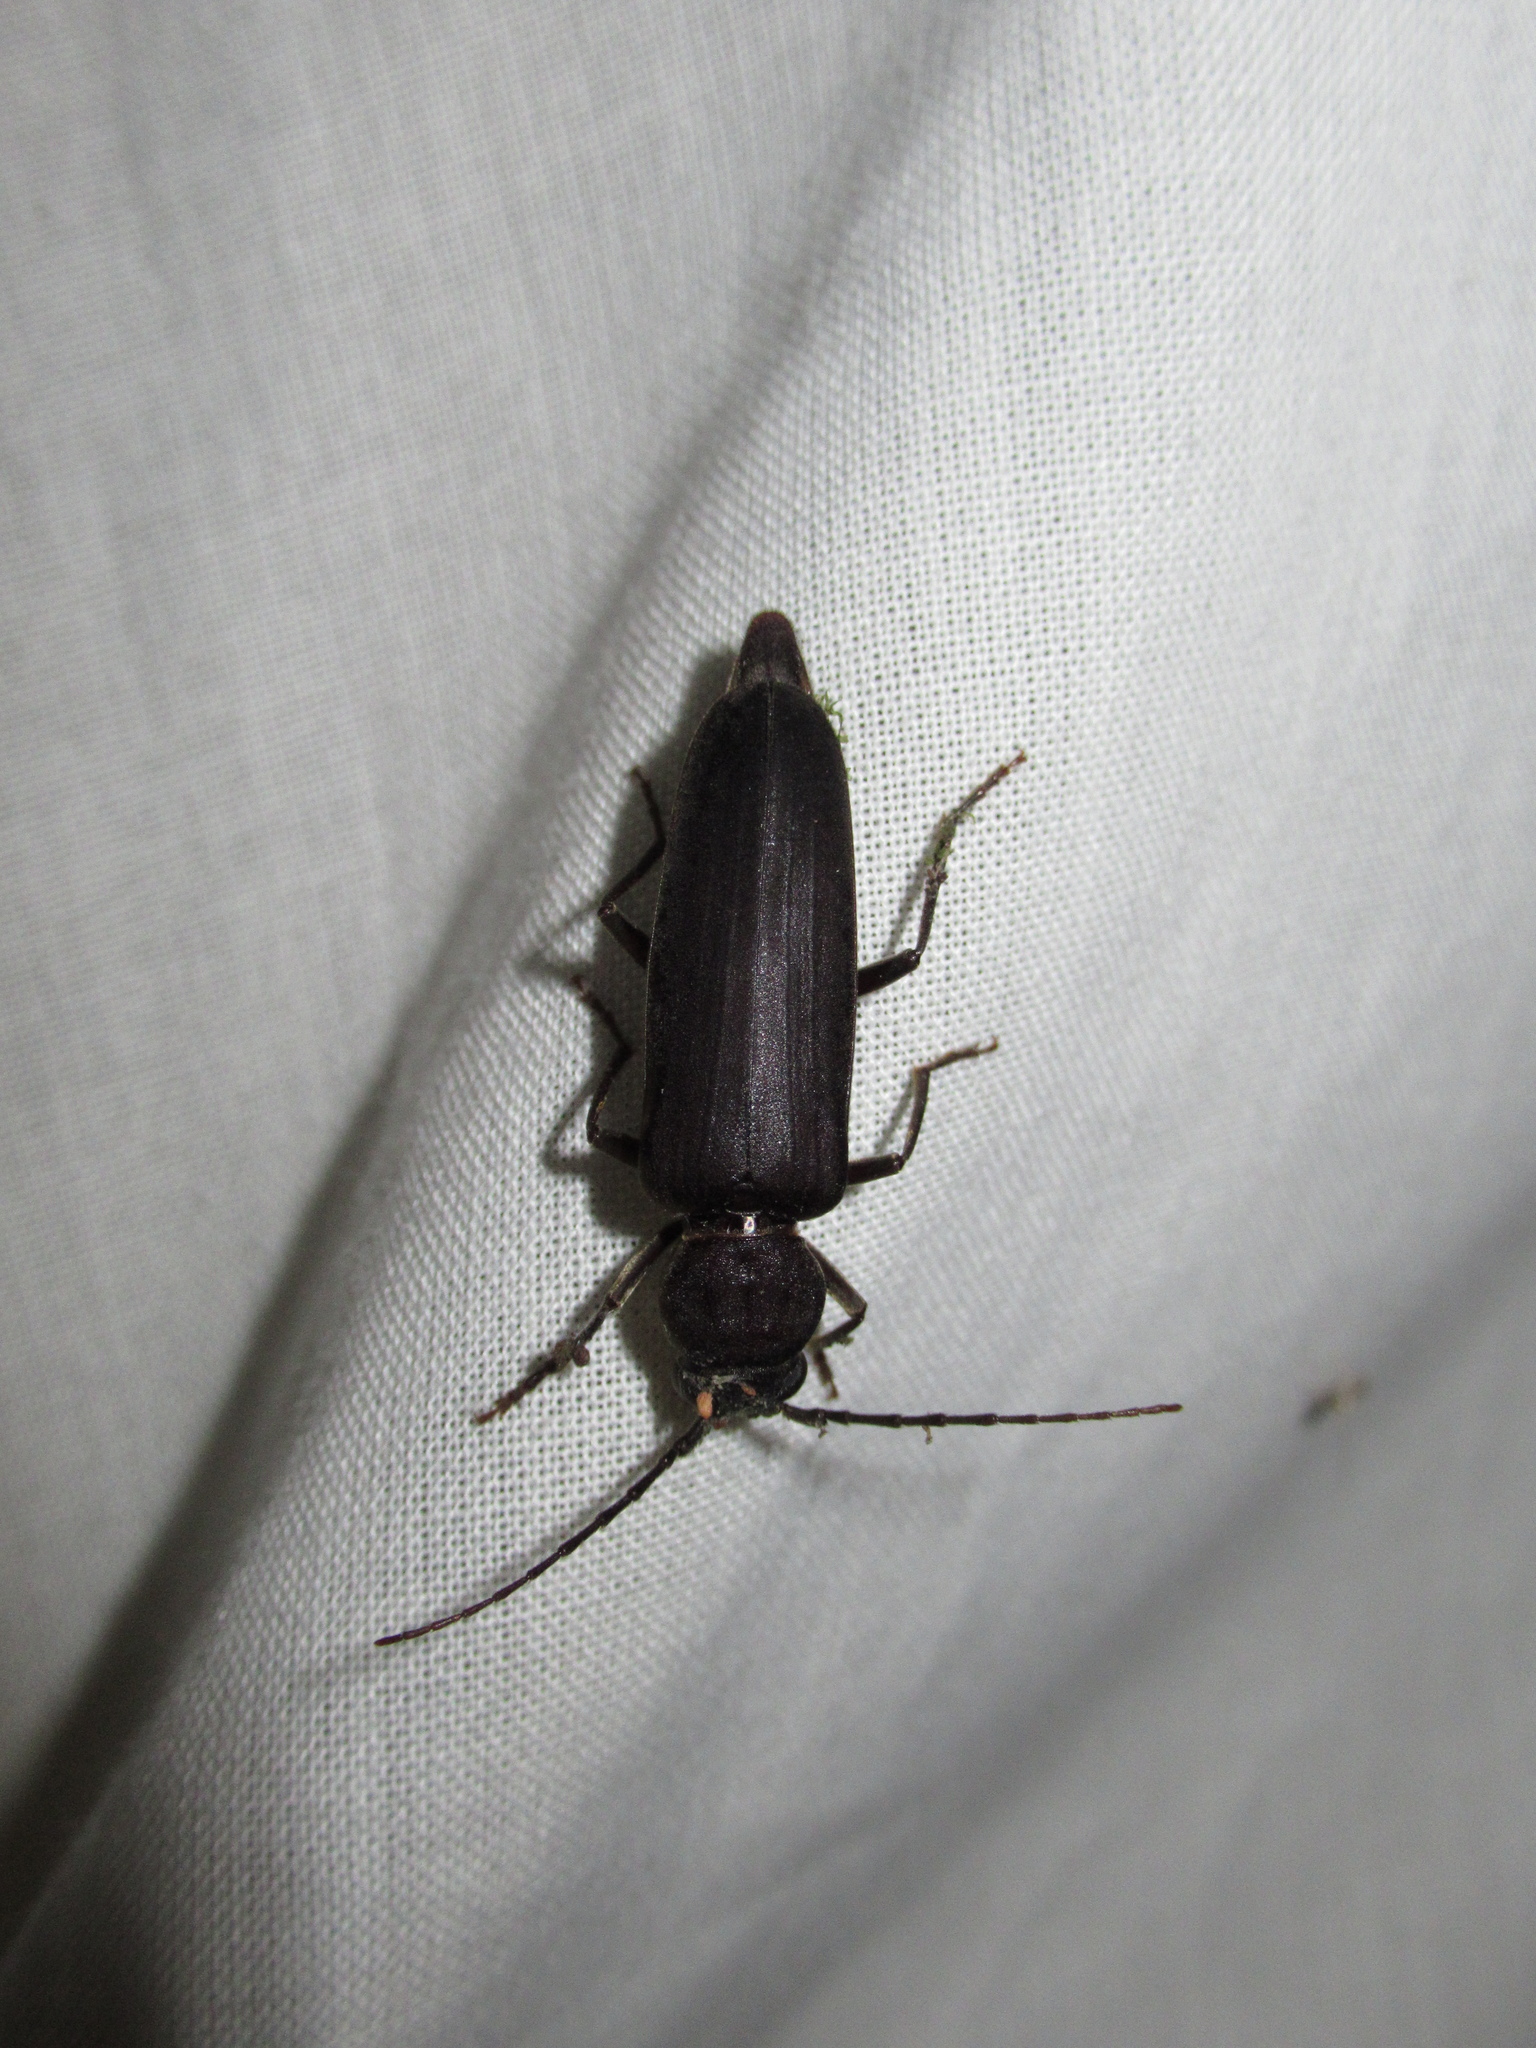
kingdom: Animalia
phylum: Arthropoda
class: Insecta
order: Coleoptera
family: Cerambycidae
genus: Arhopalus
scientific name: Arhopalus ferus
